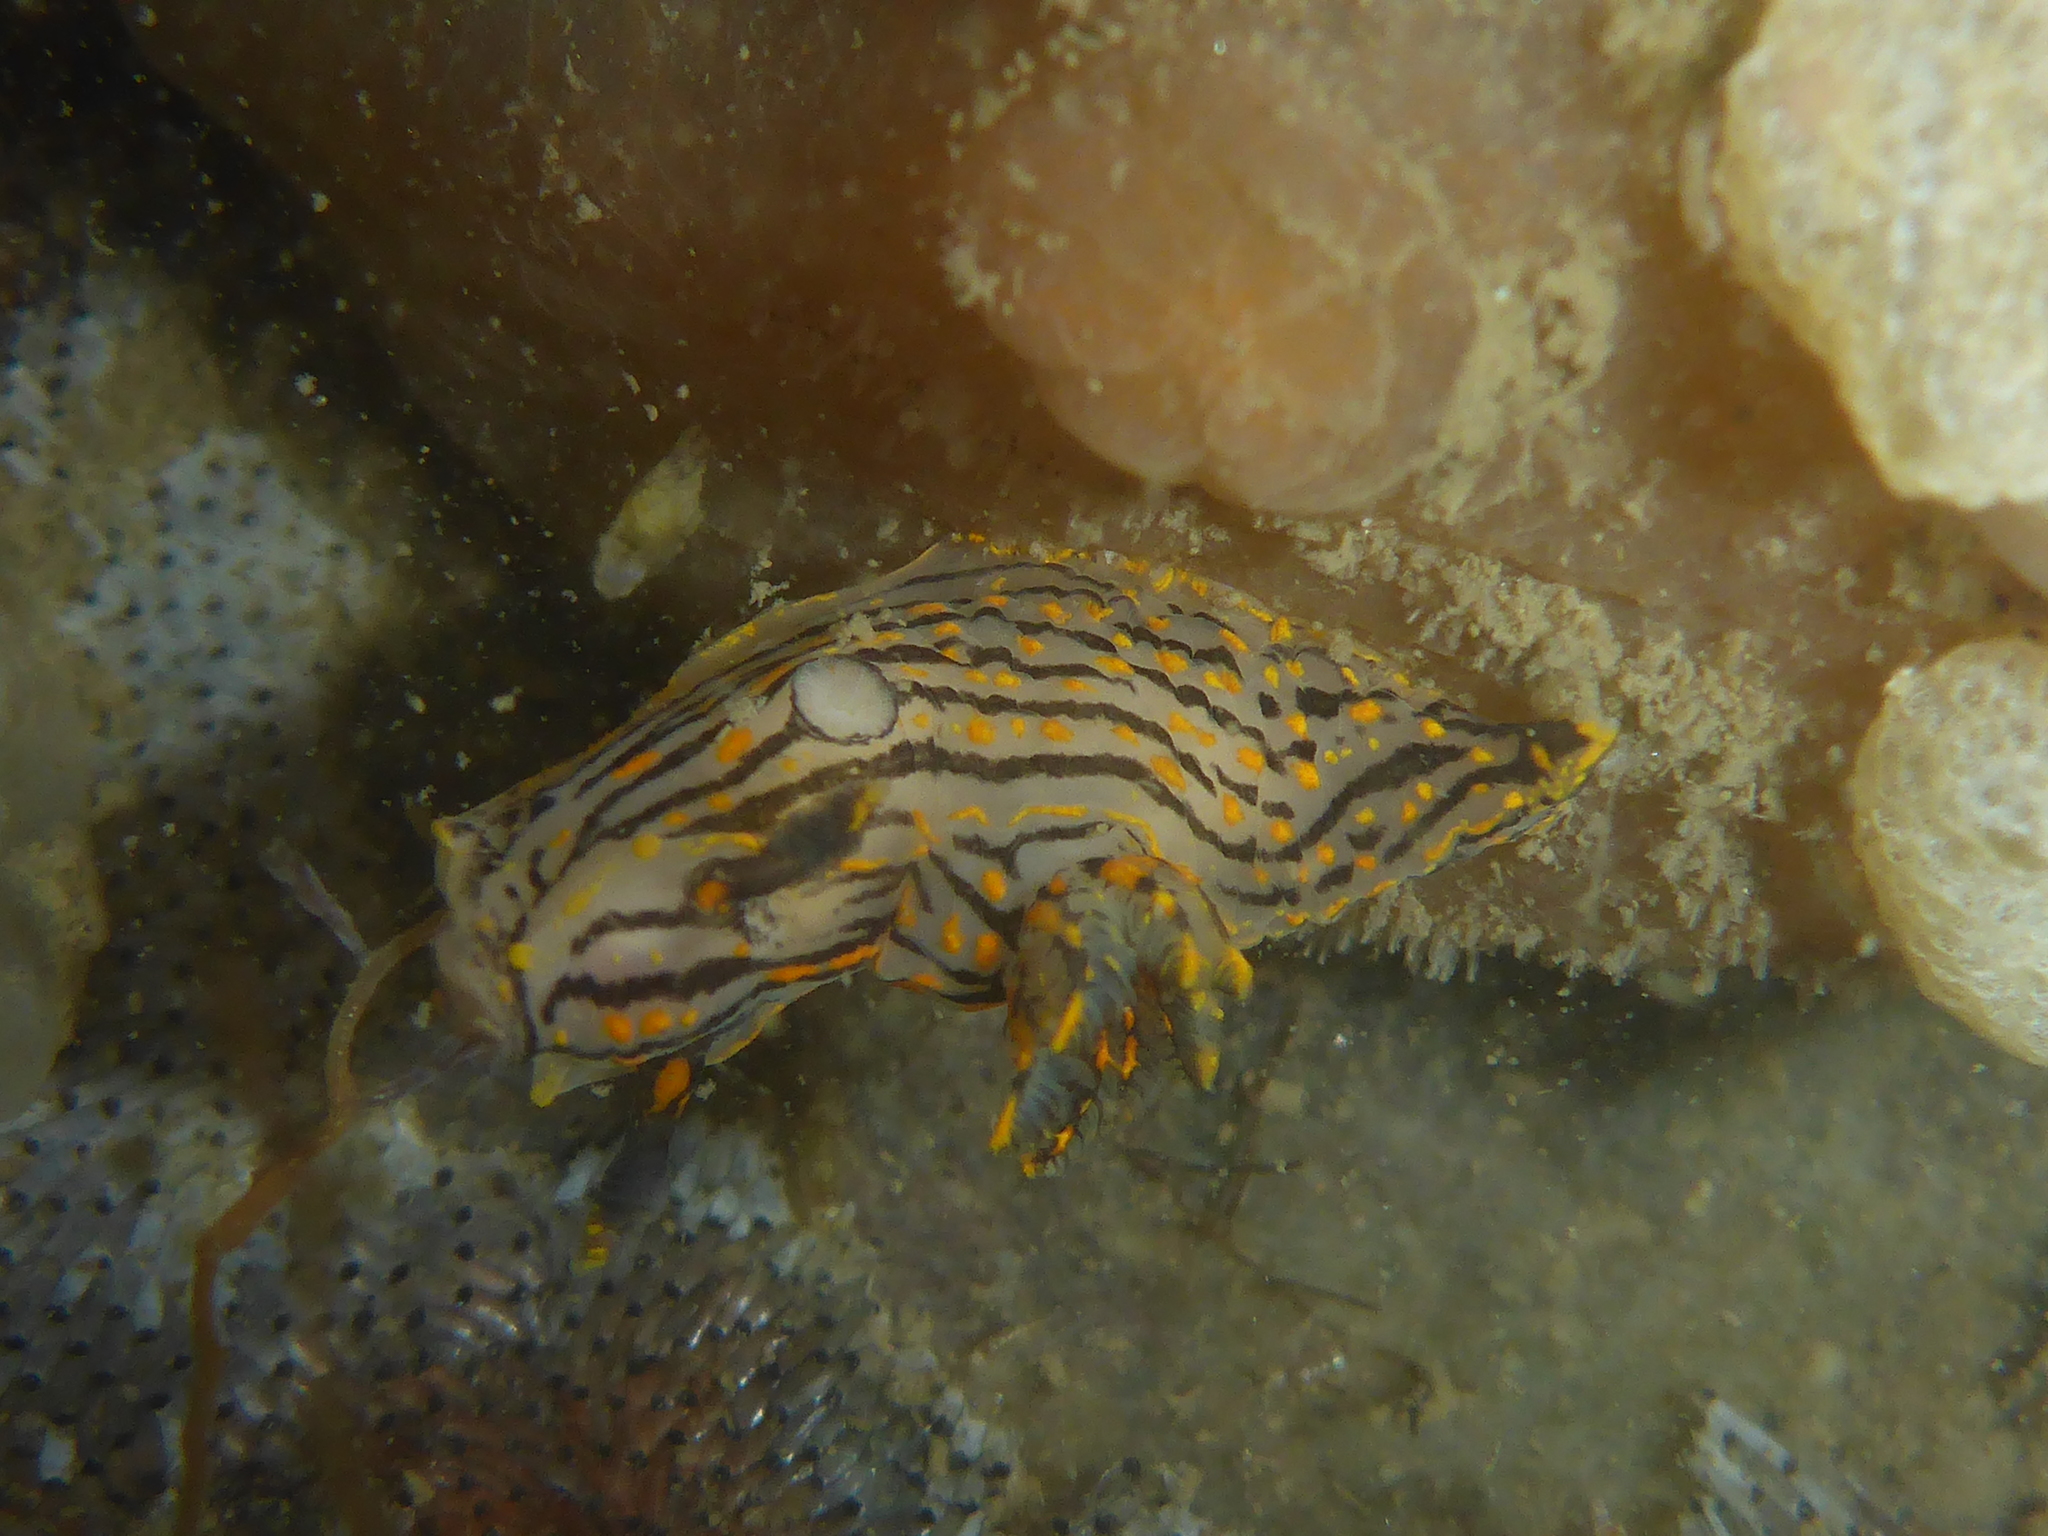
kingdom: Animalia
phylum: Mollusca
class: Gastropoda
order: Nudibranchia
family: Polyceridae
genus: Polycera
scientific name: Polycera atra
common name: Orange-spike polycera
